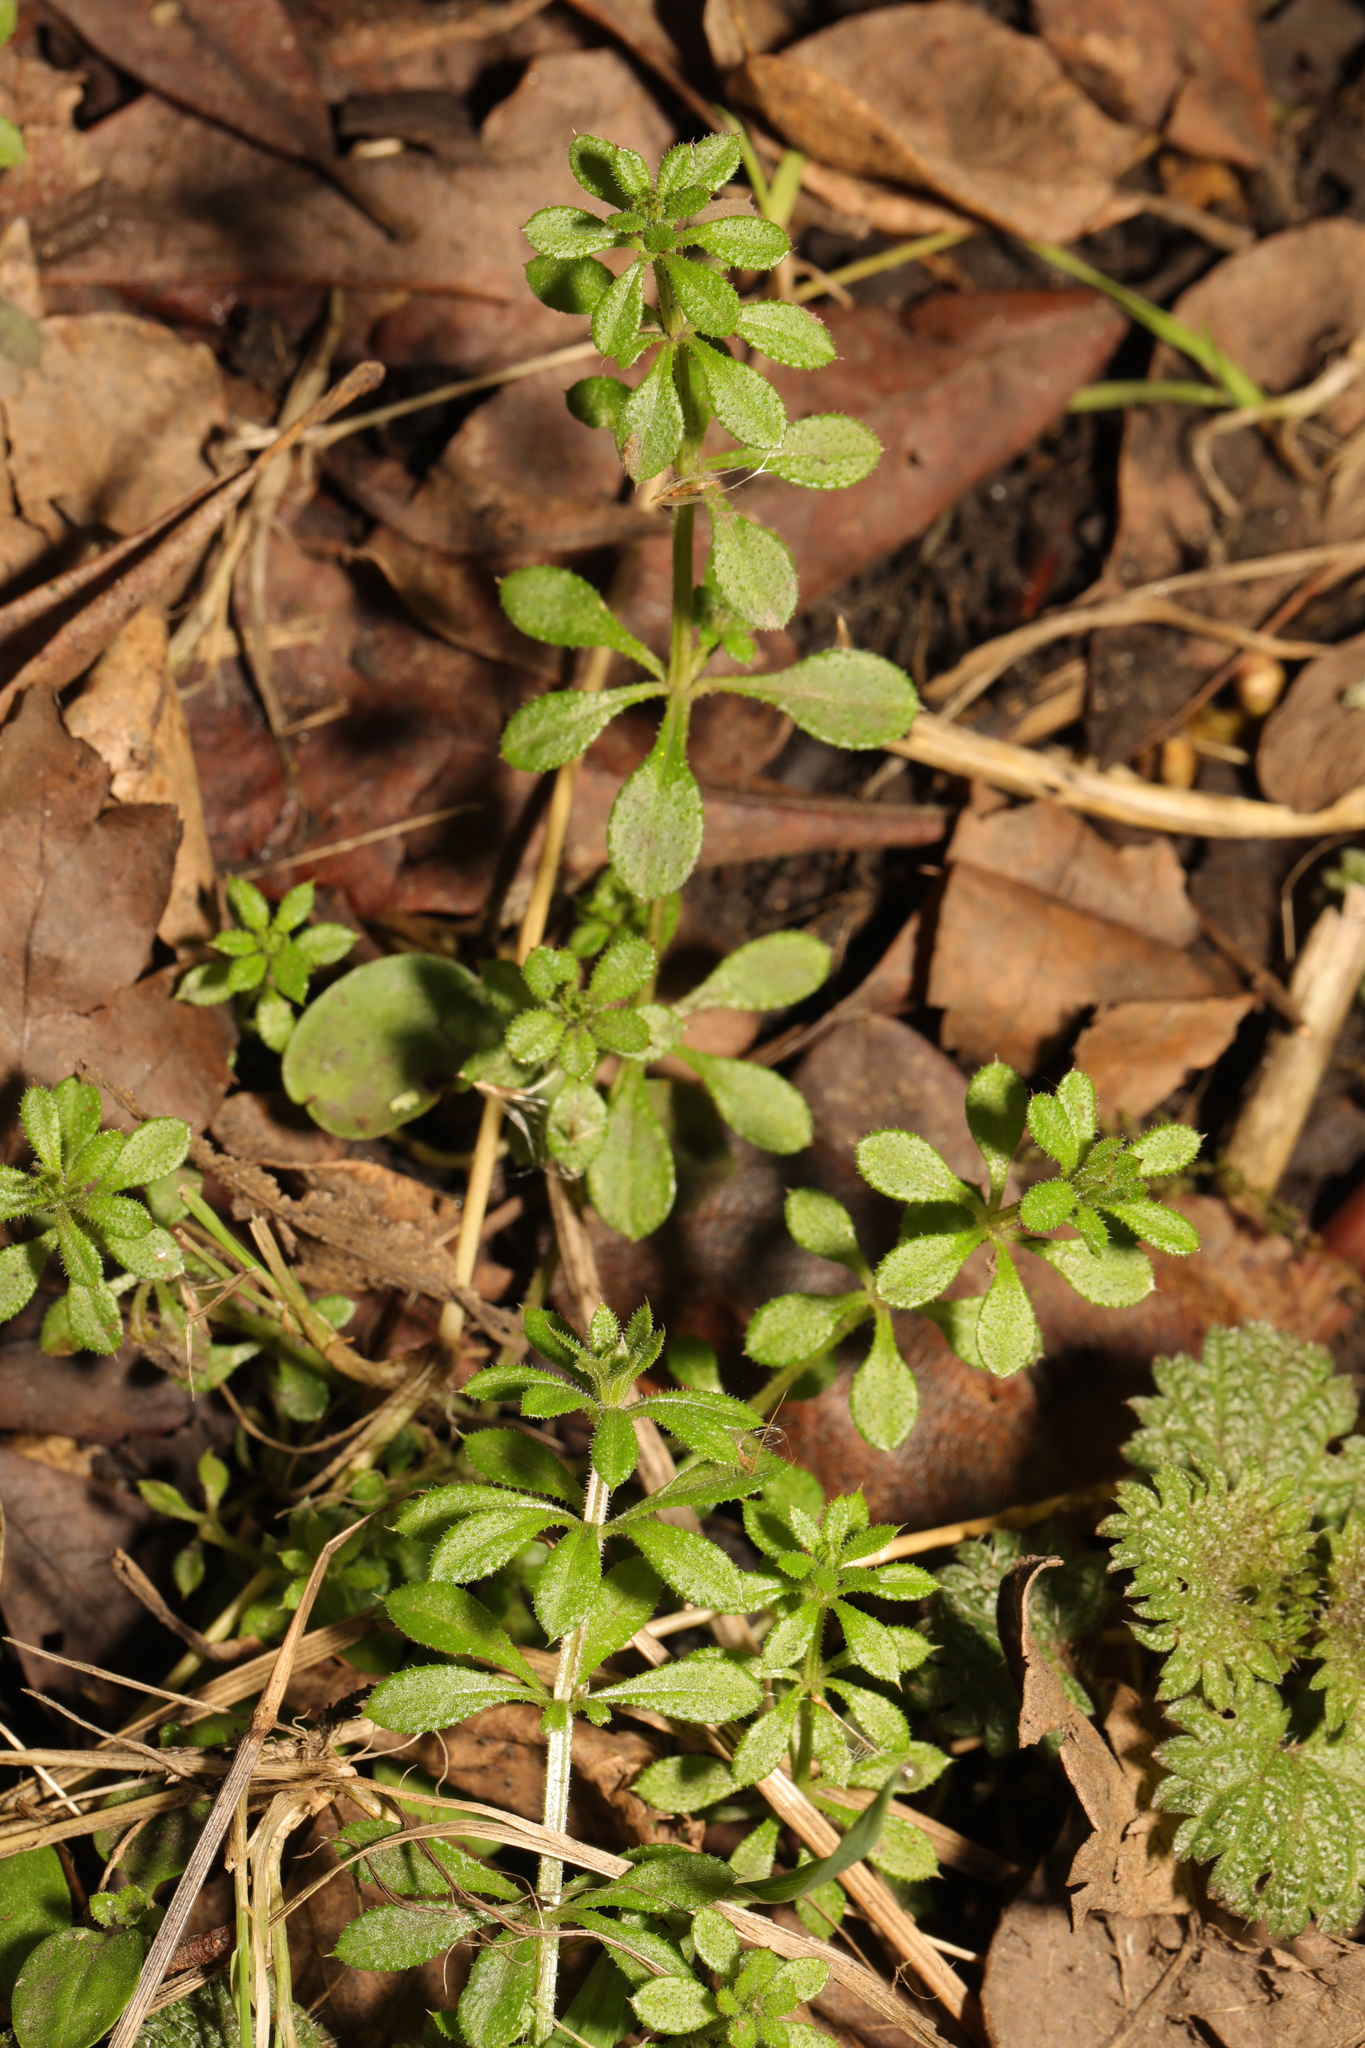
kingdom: Plantae
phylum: Tracheophyta
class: Magnoliopsida
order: Gentianales
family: Rubiaceae
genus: Galium
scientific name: Galium aparine
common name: Cleavers
